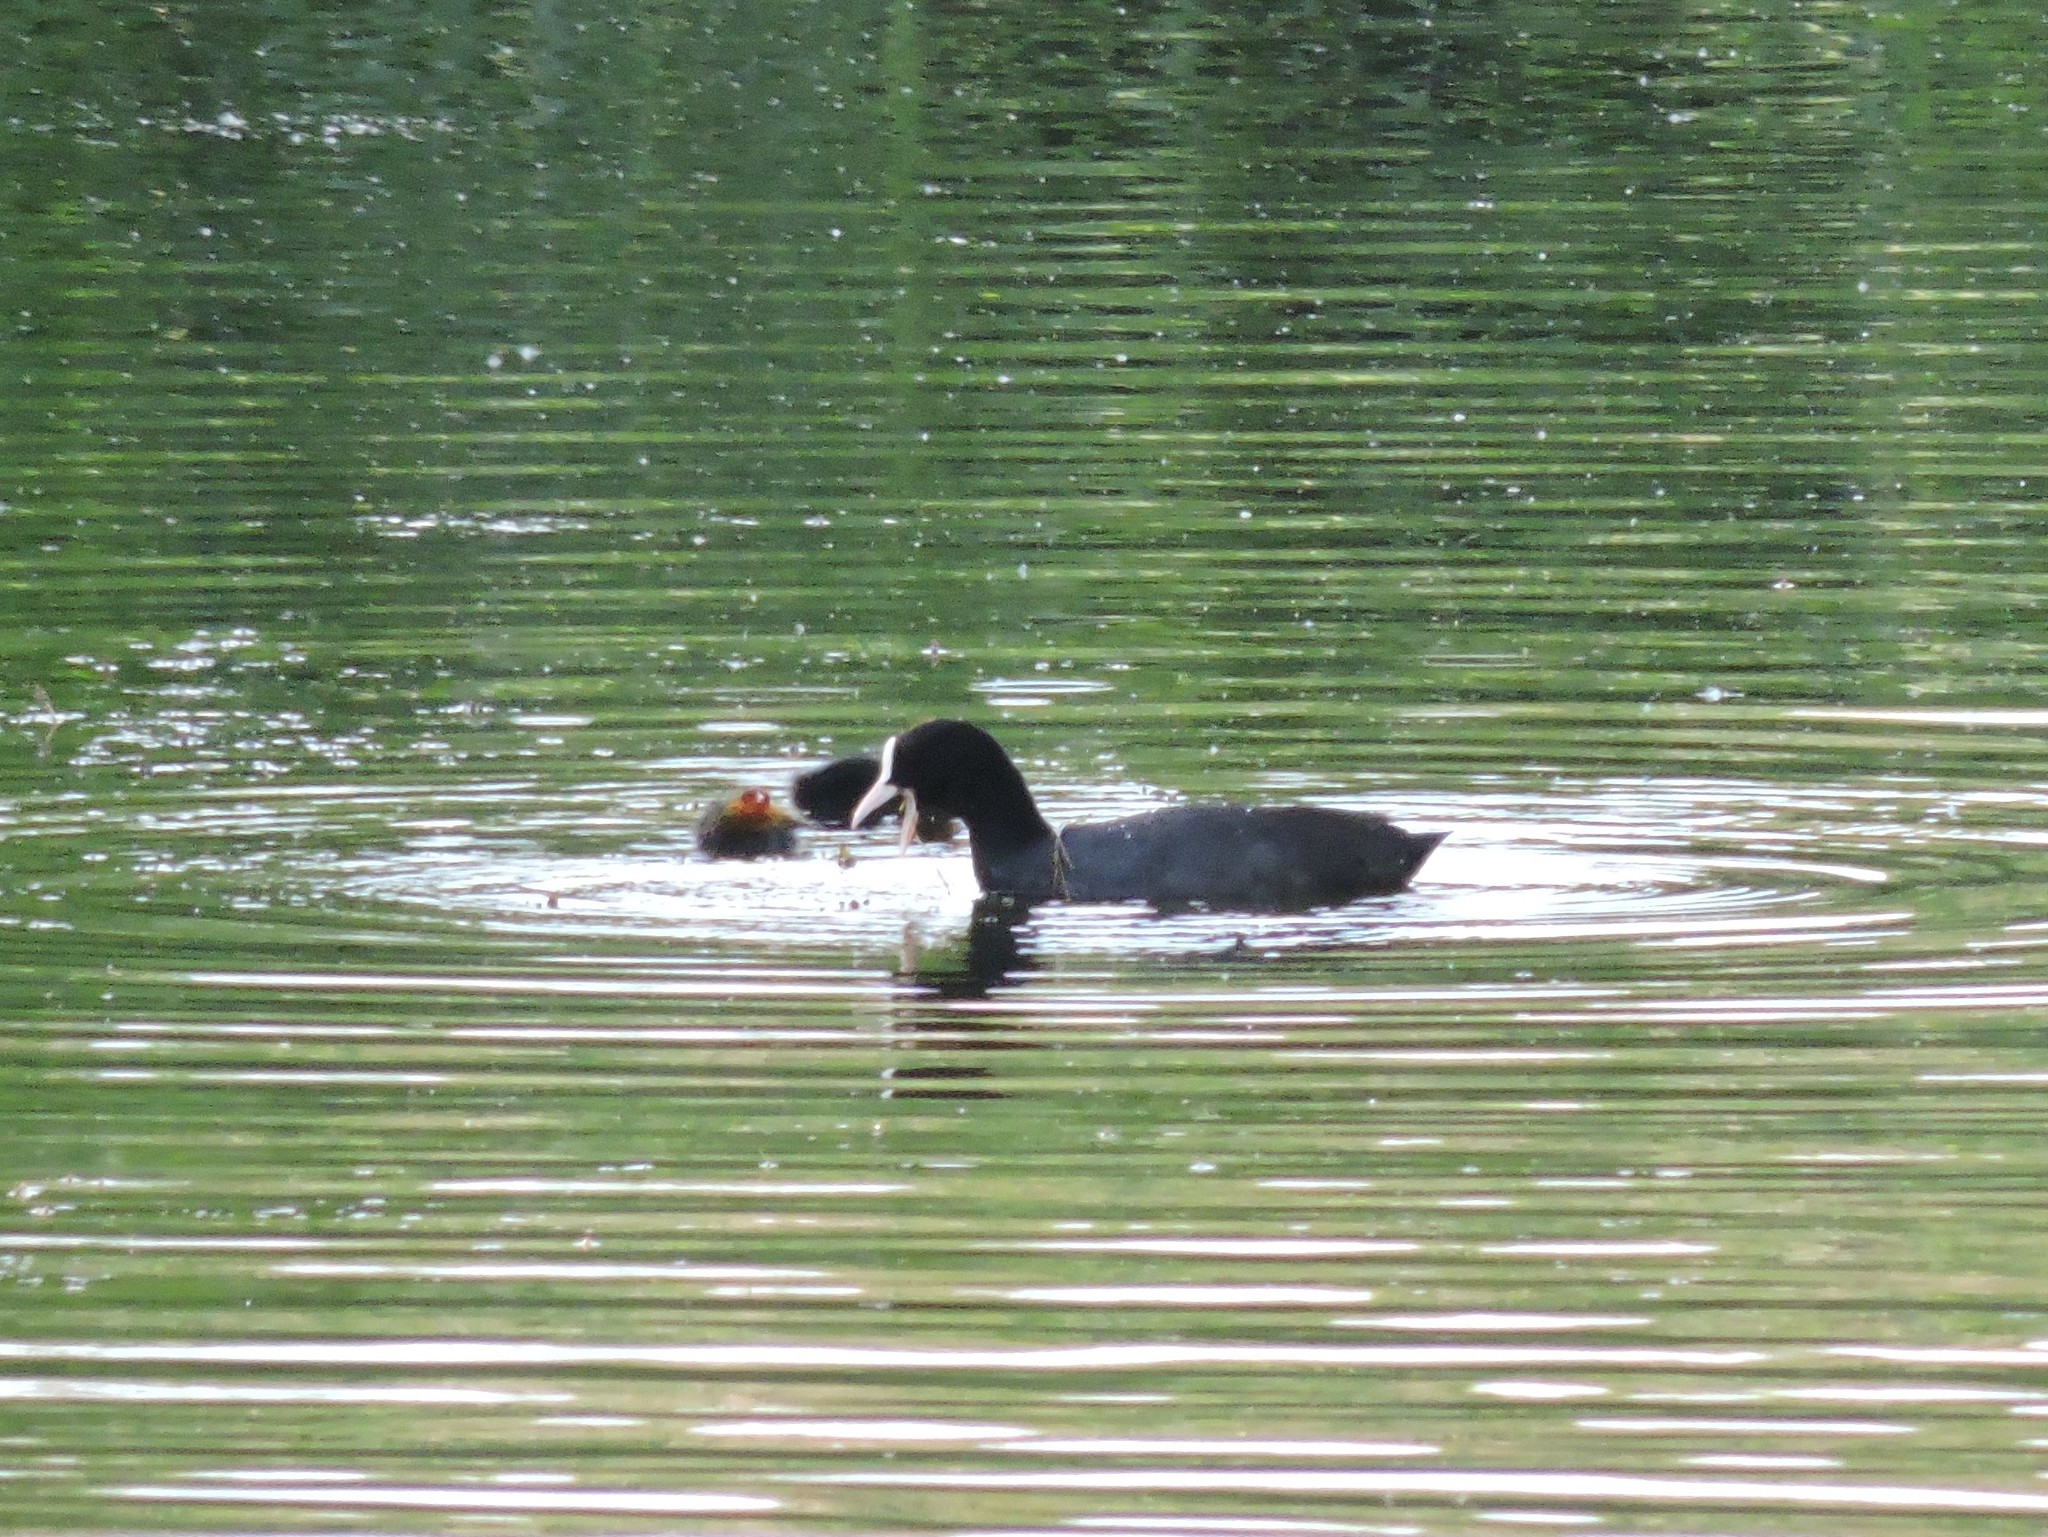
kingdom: Animalia
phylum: Chordata
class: Aves
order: Gruiformes
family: Rallidae
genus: Fulica
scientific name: Fulica atra
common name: Eurasian coot
